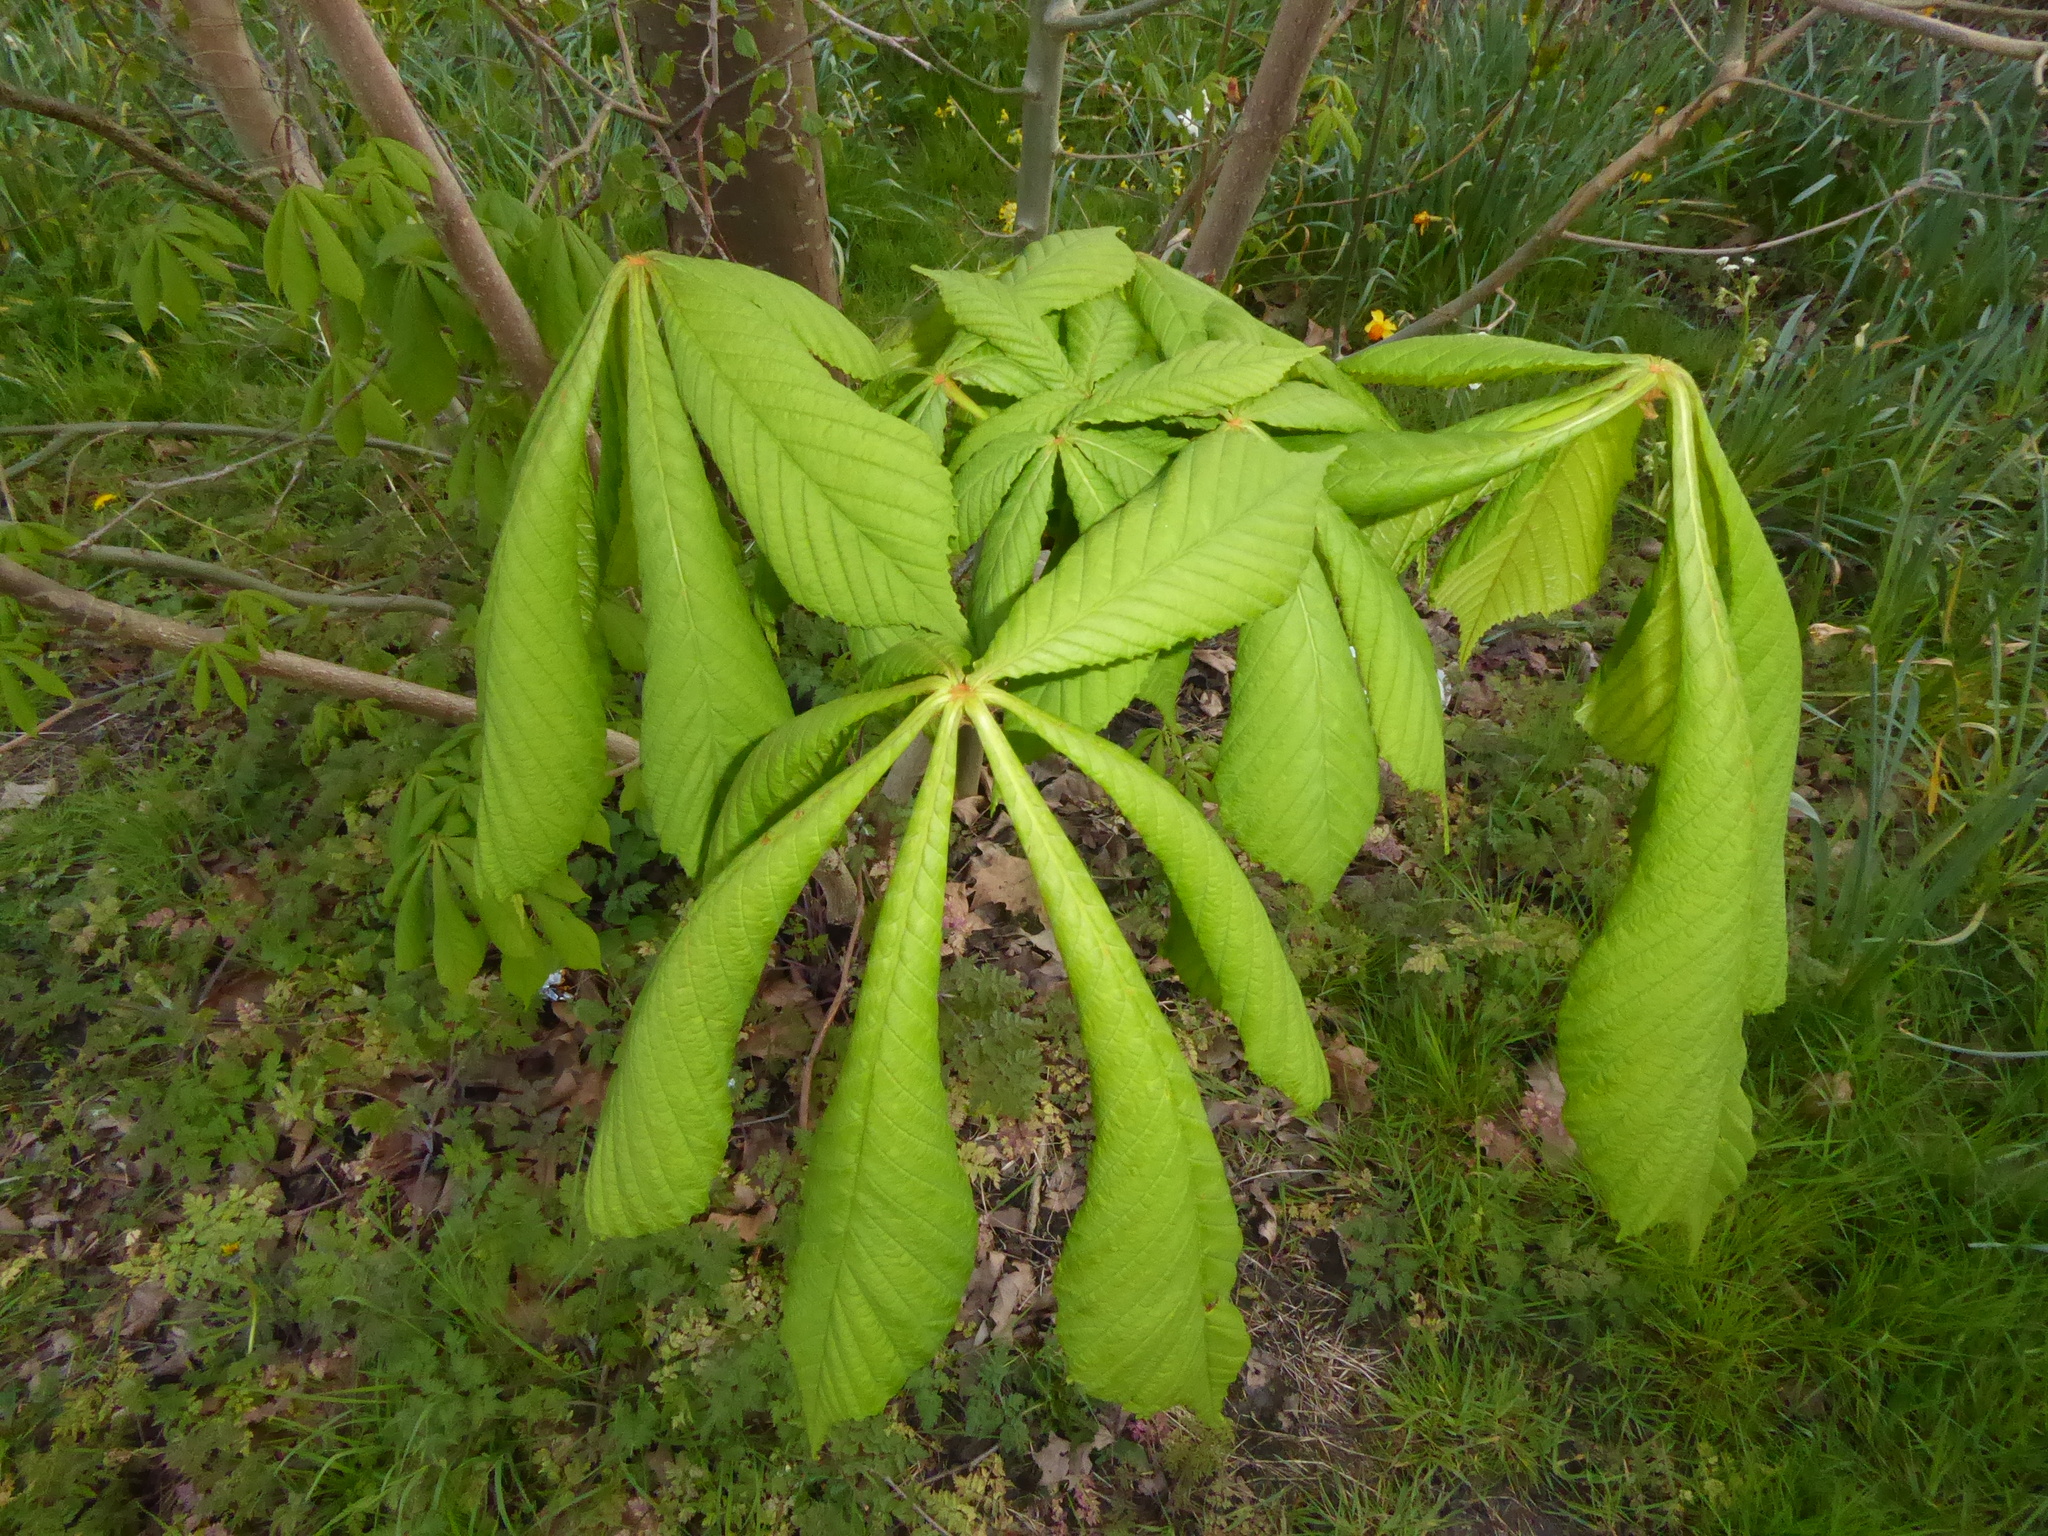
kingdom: Plantae
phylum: Tracheophyta
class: Magnoliopsida
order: Sapindales
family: Sapindaceae
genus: Aesculus
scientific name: Aesculus hippocastanum
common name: Horse-chestnut
